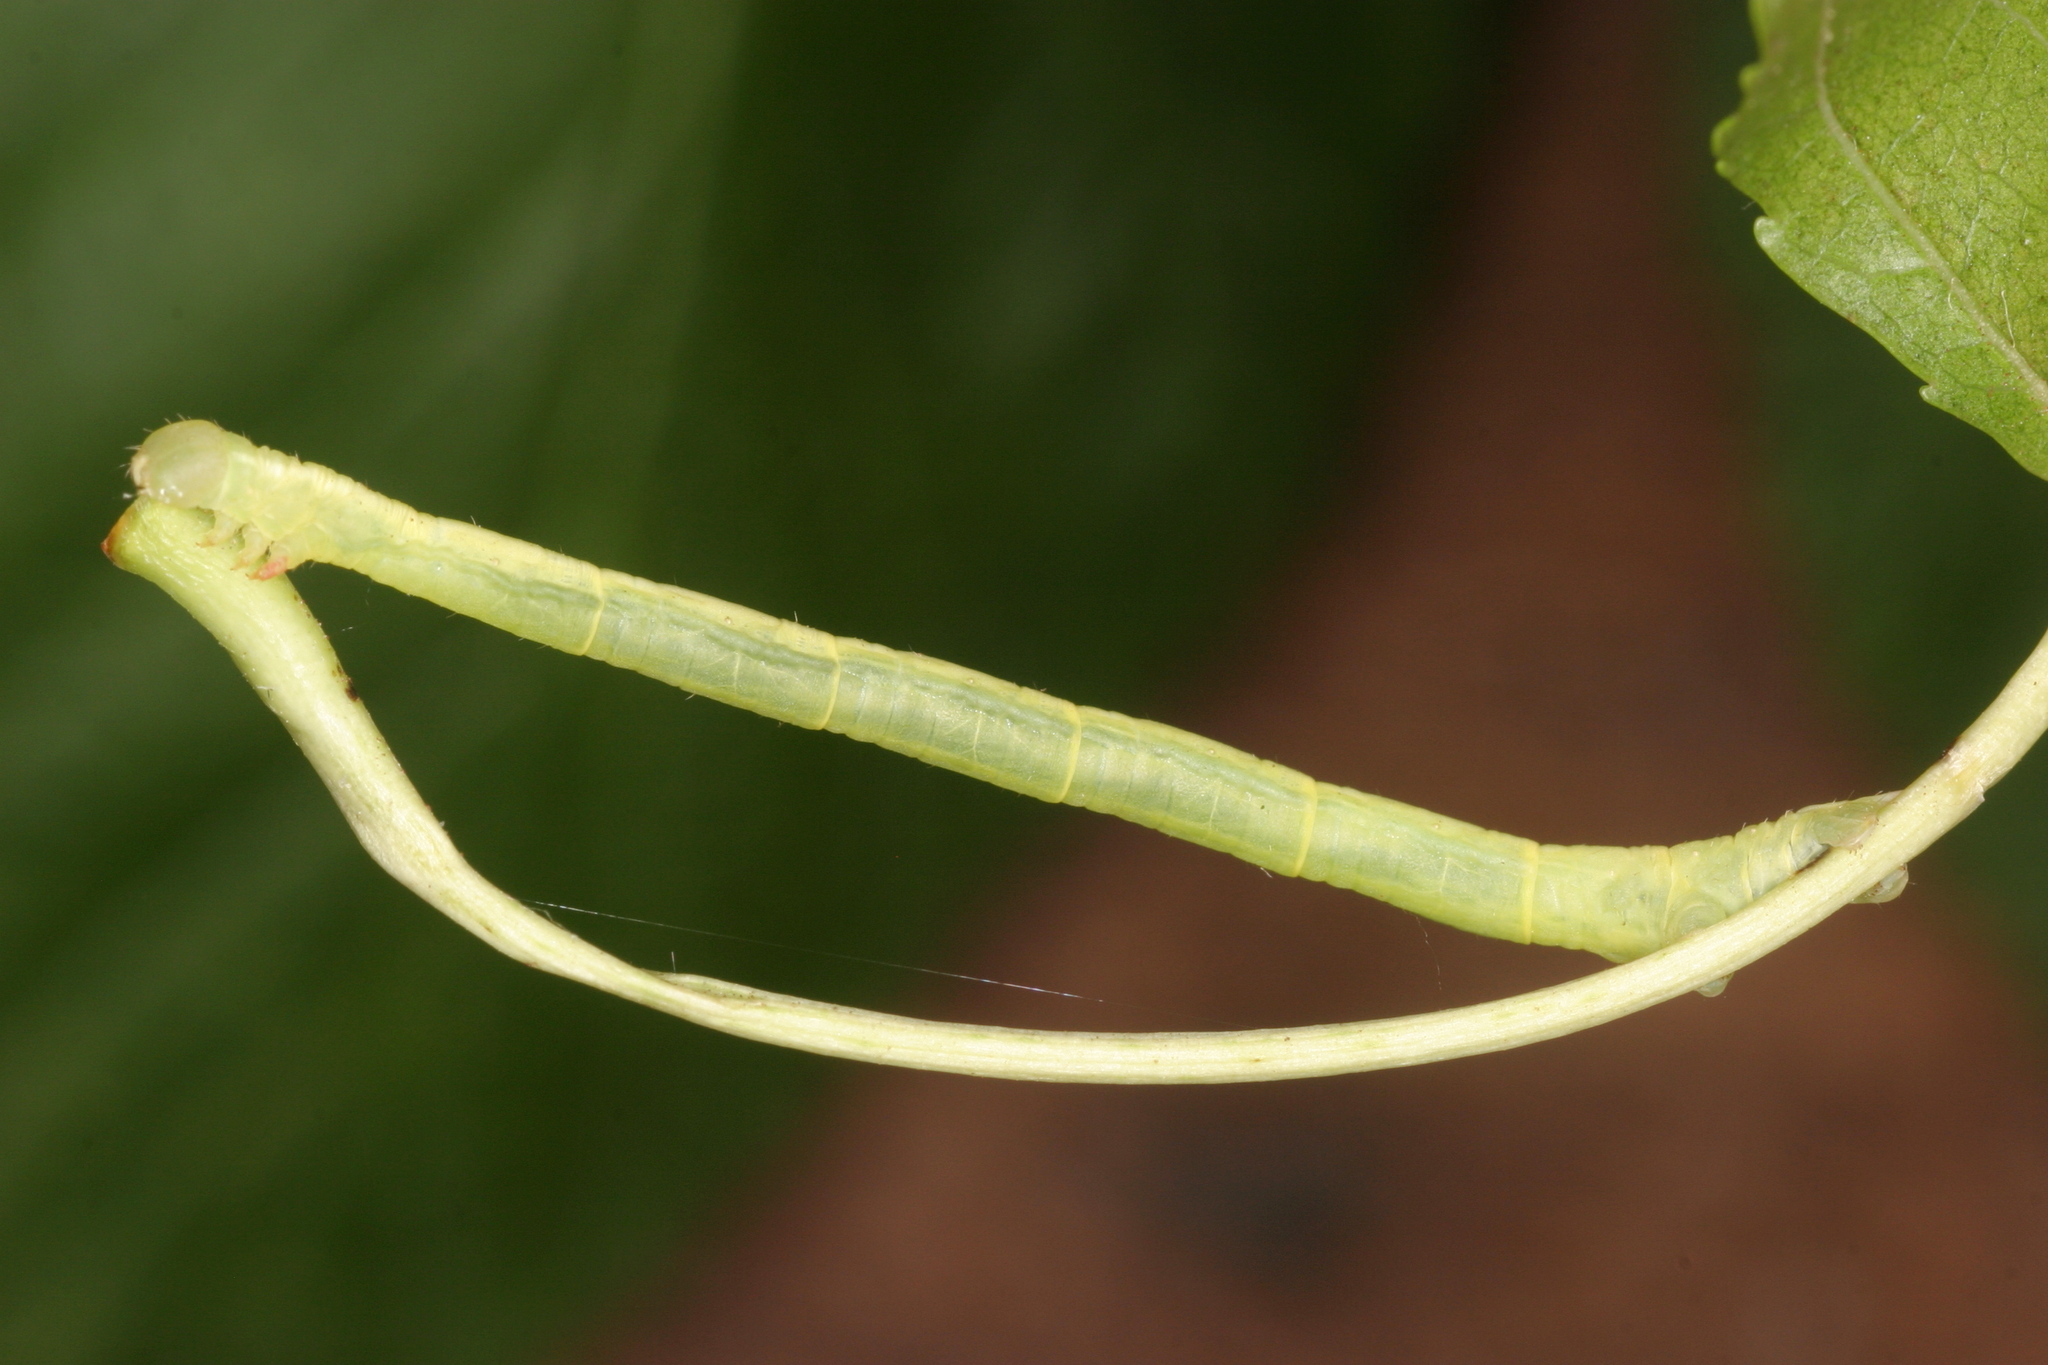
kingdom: Animalia
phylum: Arthropoda
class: Insecta
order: Lepidoptera
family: Geometridae
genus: Chloroclysta
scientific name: Chloroclysta siterata
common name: Red-green carpet
